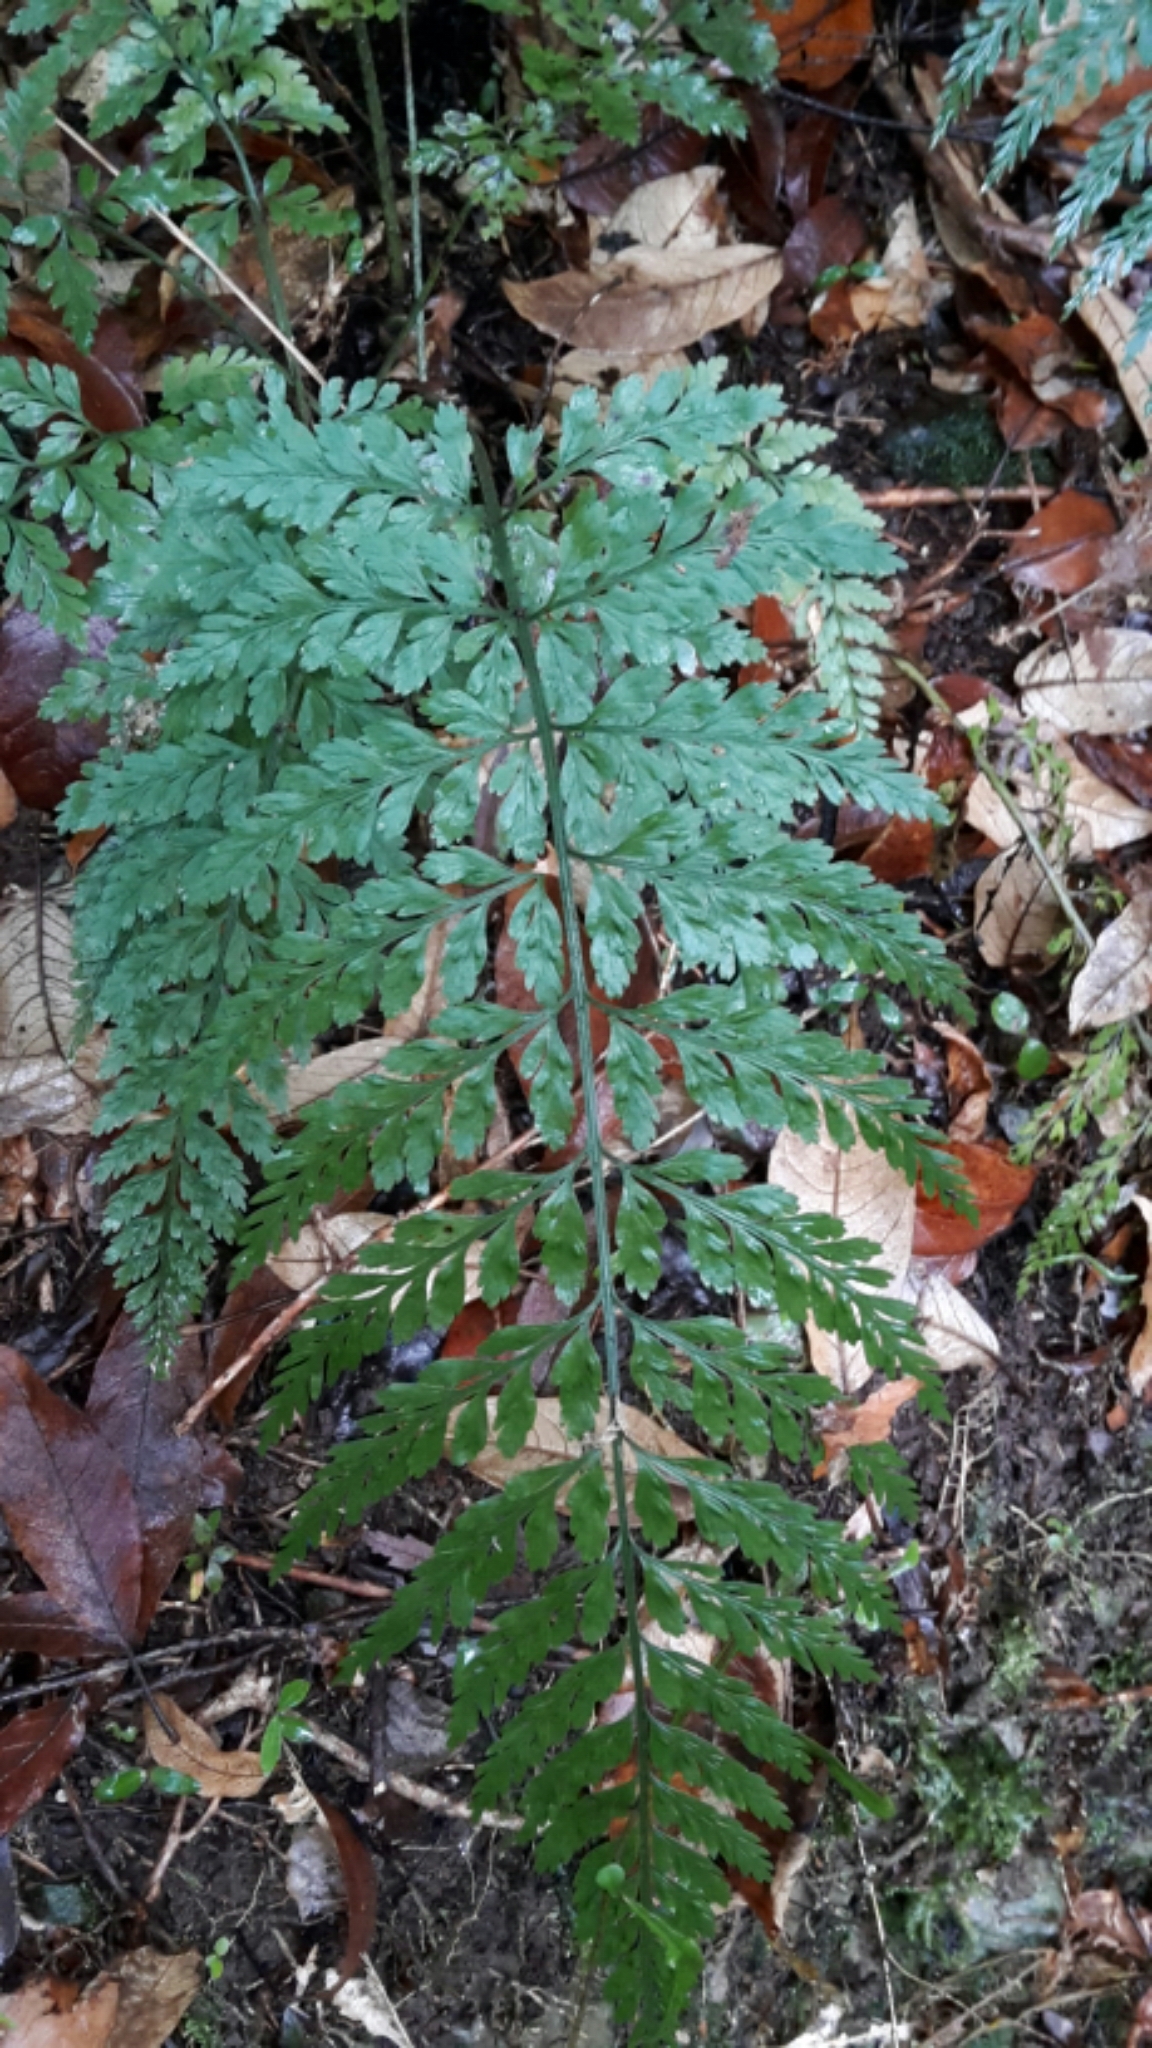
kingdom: Plantae
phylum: Tracheophyta
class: Polypodiopsida
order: Polypodiales
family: Aspleniaceae
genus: Asplenium
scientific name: Asplenium
